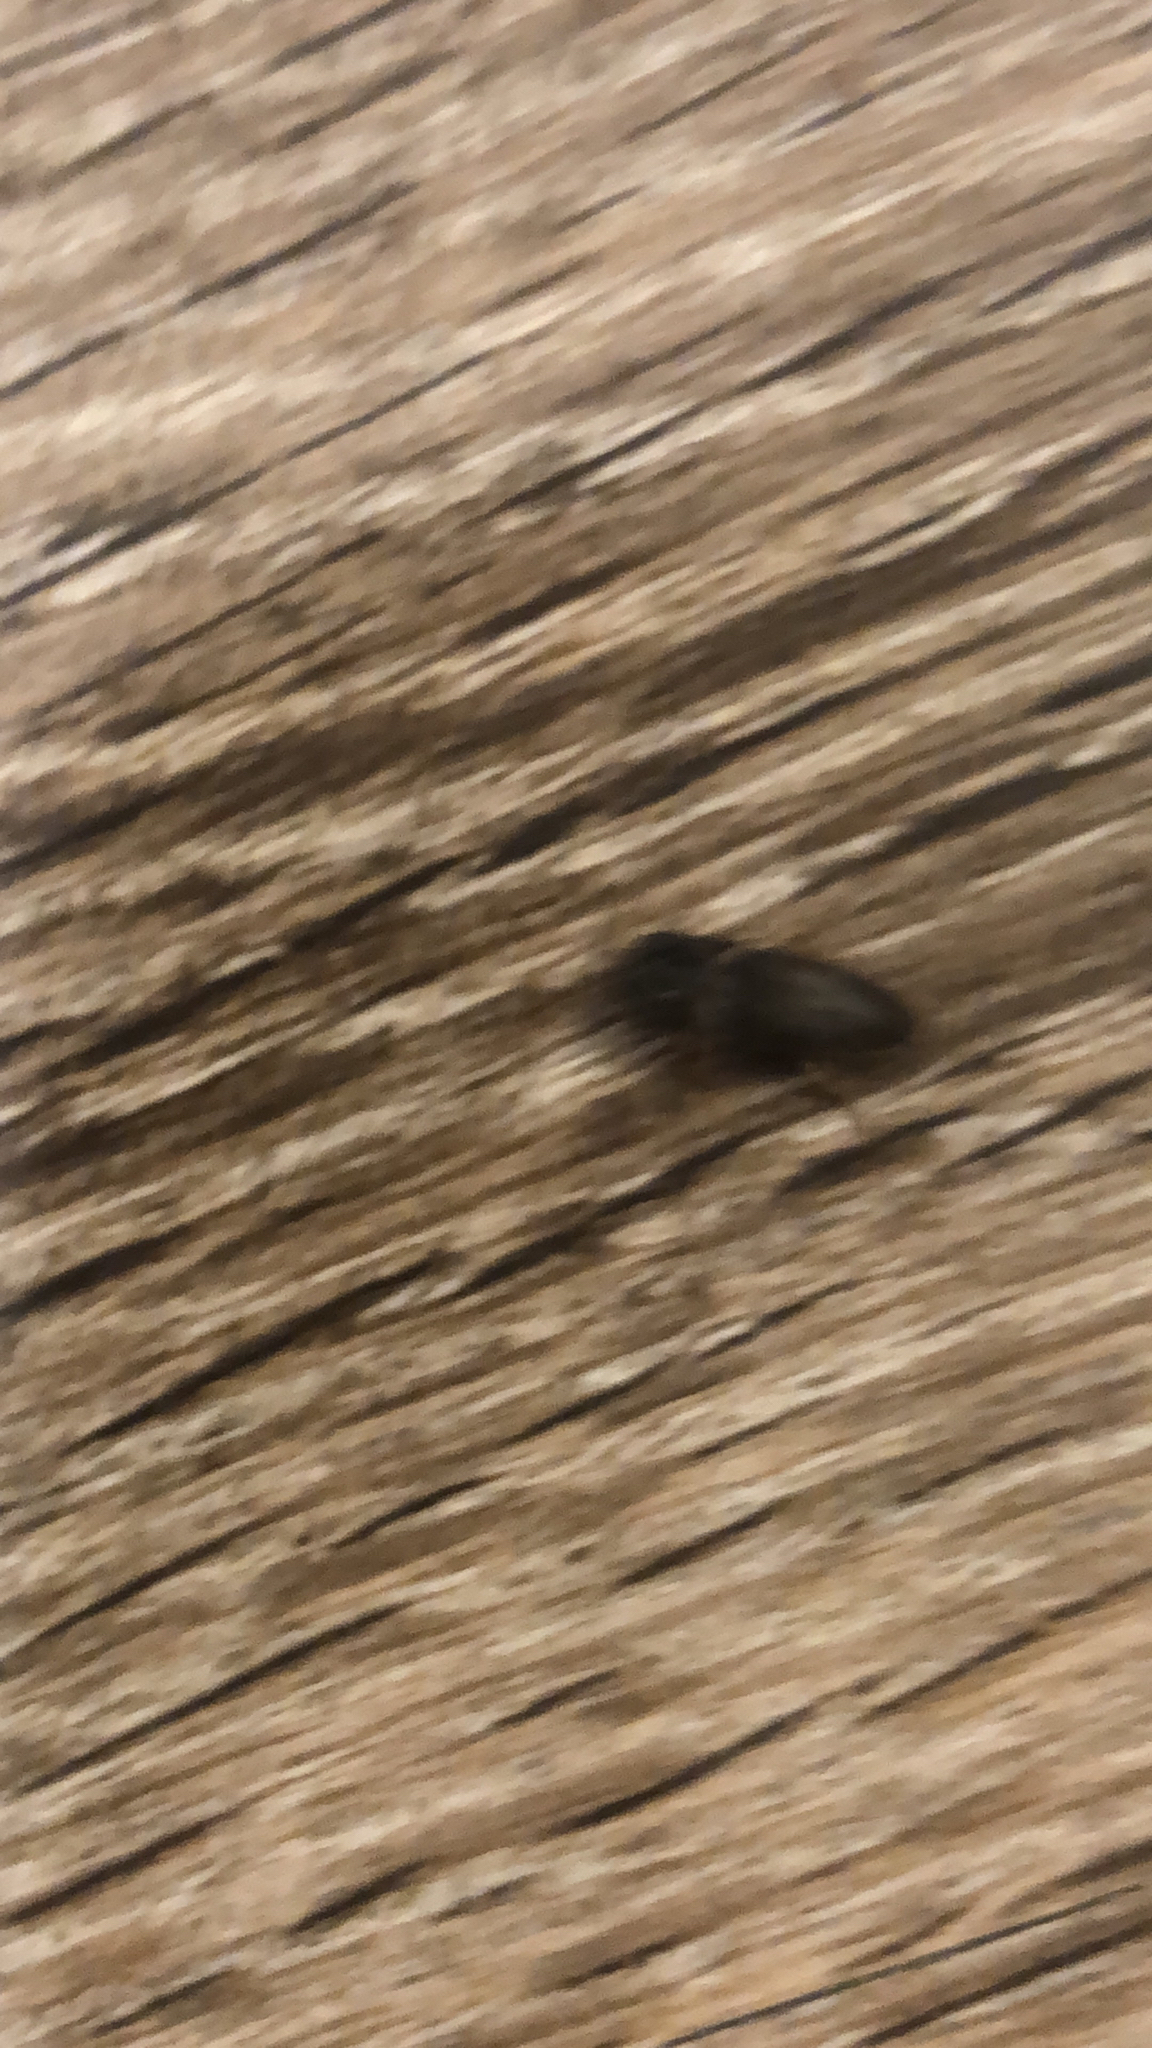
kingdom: Animalia
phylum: Arthropoda
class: Insecta
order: Coleoptera
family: Elateridae
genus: Heteroderes
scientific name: Heteroderes amplicollis
